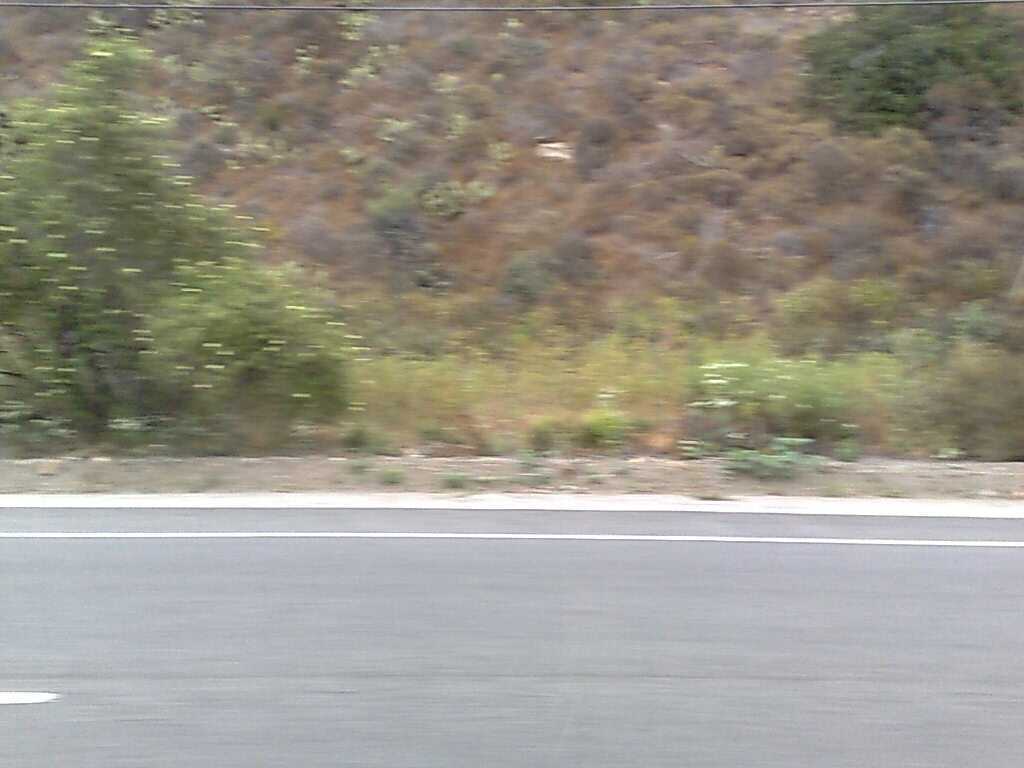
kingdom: Plantae
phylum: Tracheophyta
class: Magnoliopsida
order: Dipsacales
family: Viburnaceae
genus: Sambucus
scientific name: Sambucus cerulea
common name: Blue elder
